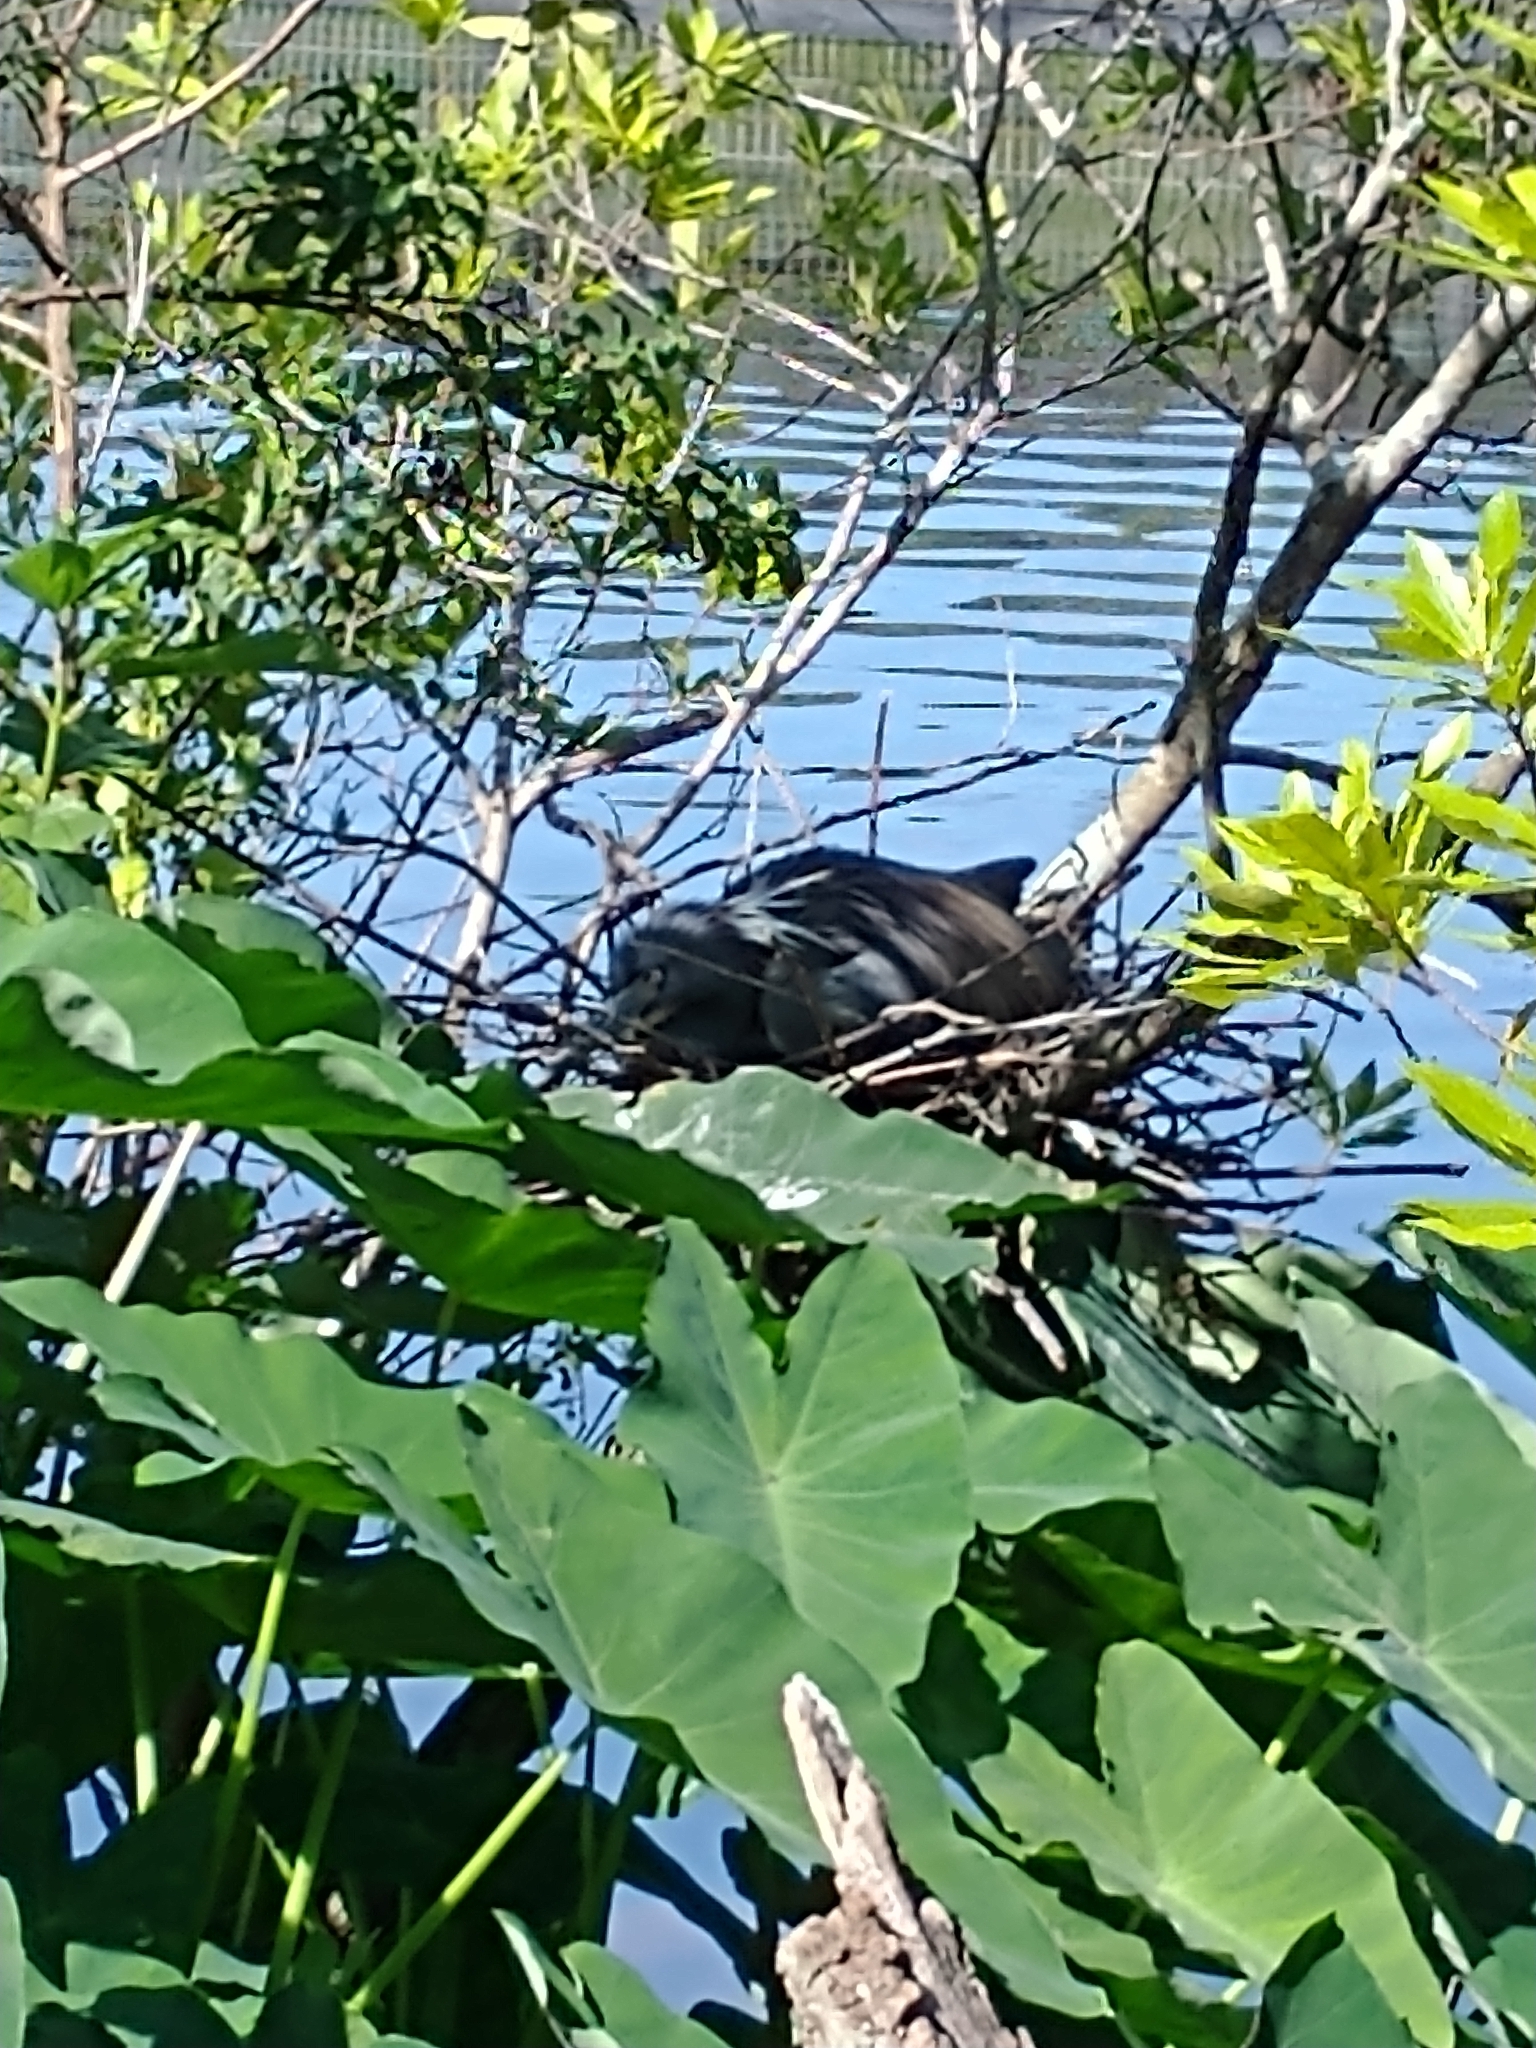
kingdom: Animalia
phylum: Chordata
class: Aves
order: Pelecaniformes
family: Ardeidae
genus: Egretta
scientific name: Egretta tricolor
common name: Tricolored heron
